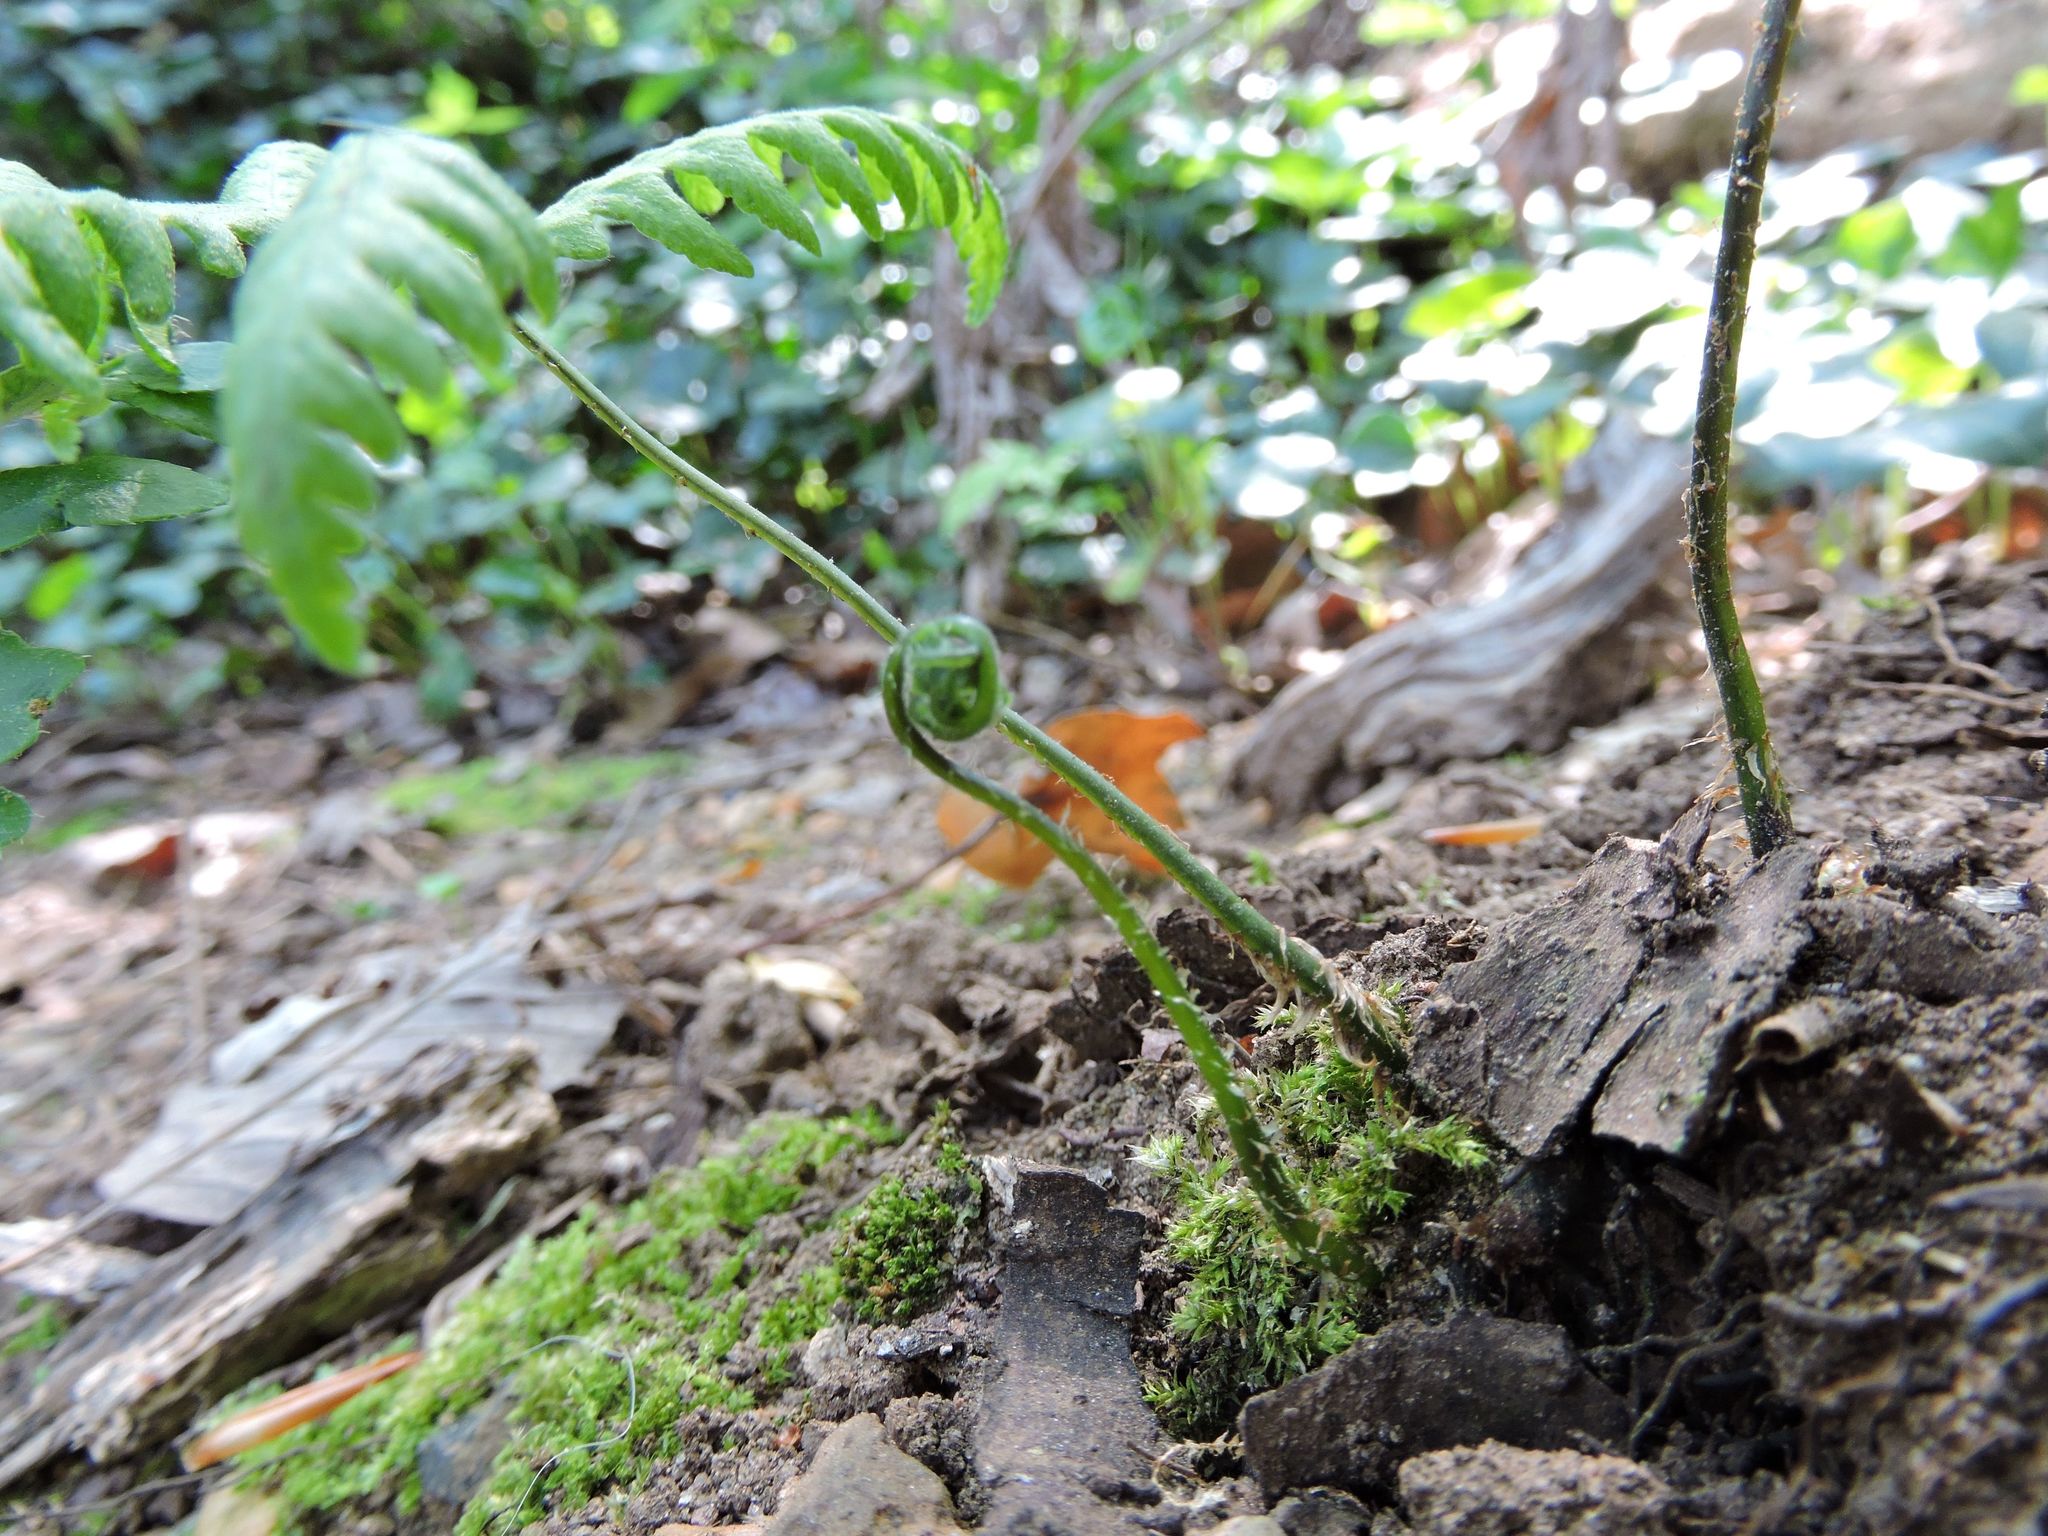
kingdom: Plantae
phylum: Tracheophyta
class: Polypodiopsida
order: Polypodiales
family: Thelypteridaceae
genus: Phegopteris
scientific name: Phegopteris hexagonoptera
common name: Broad beech fern
